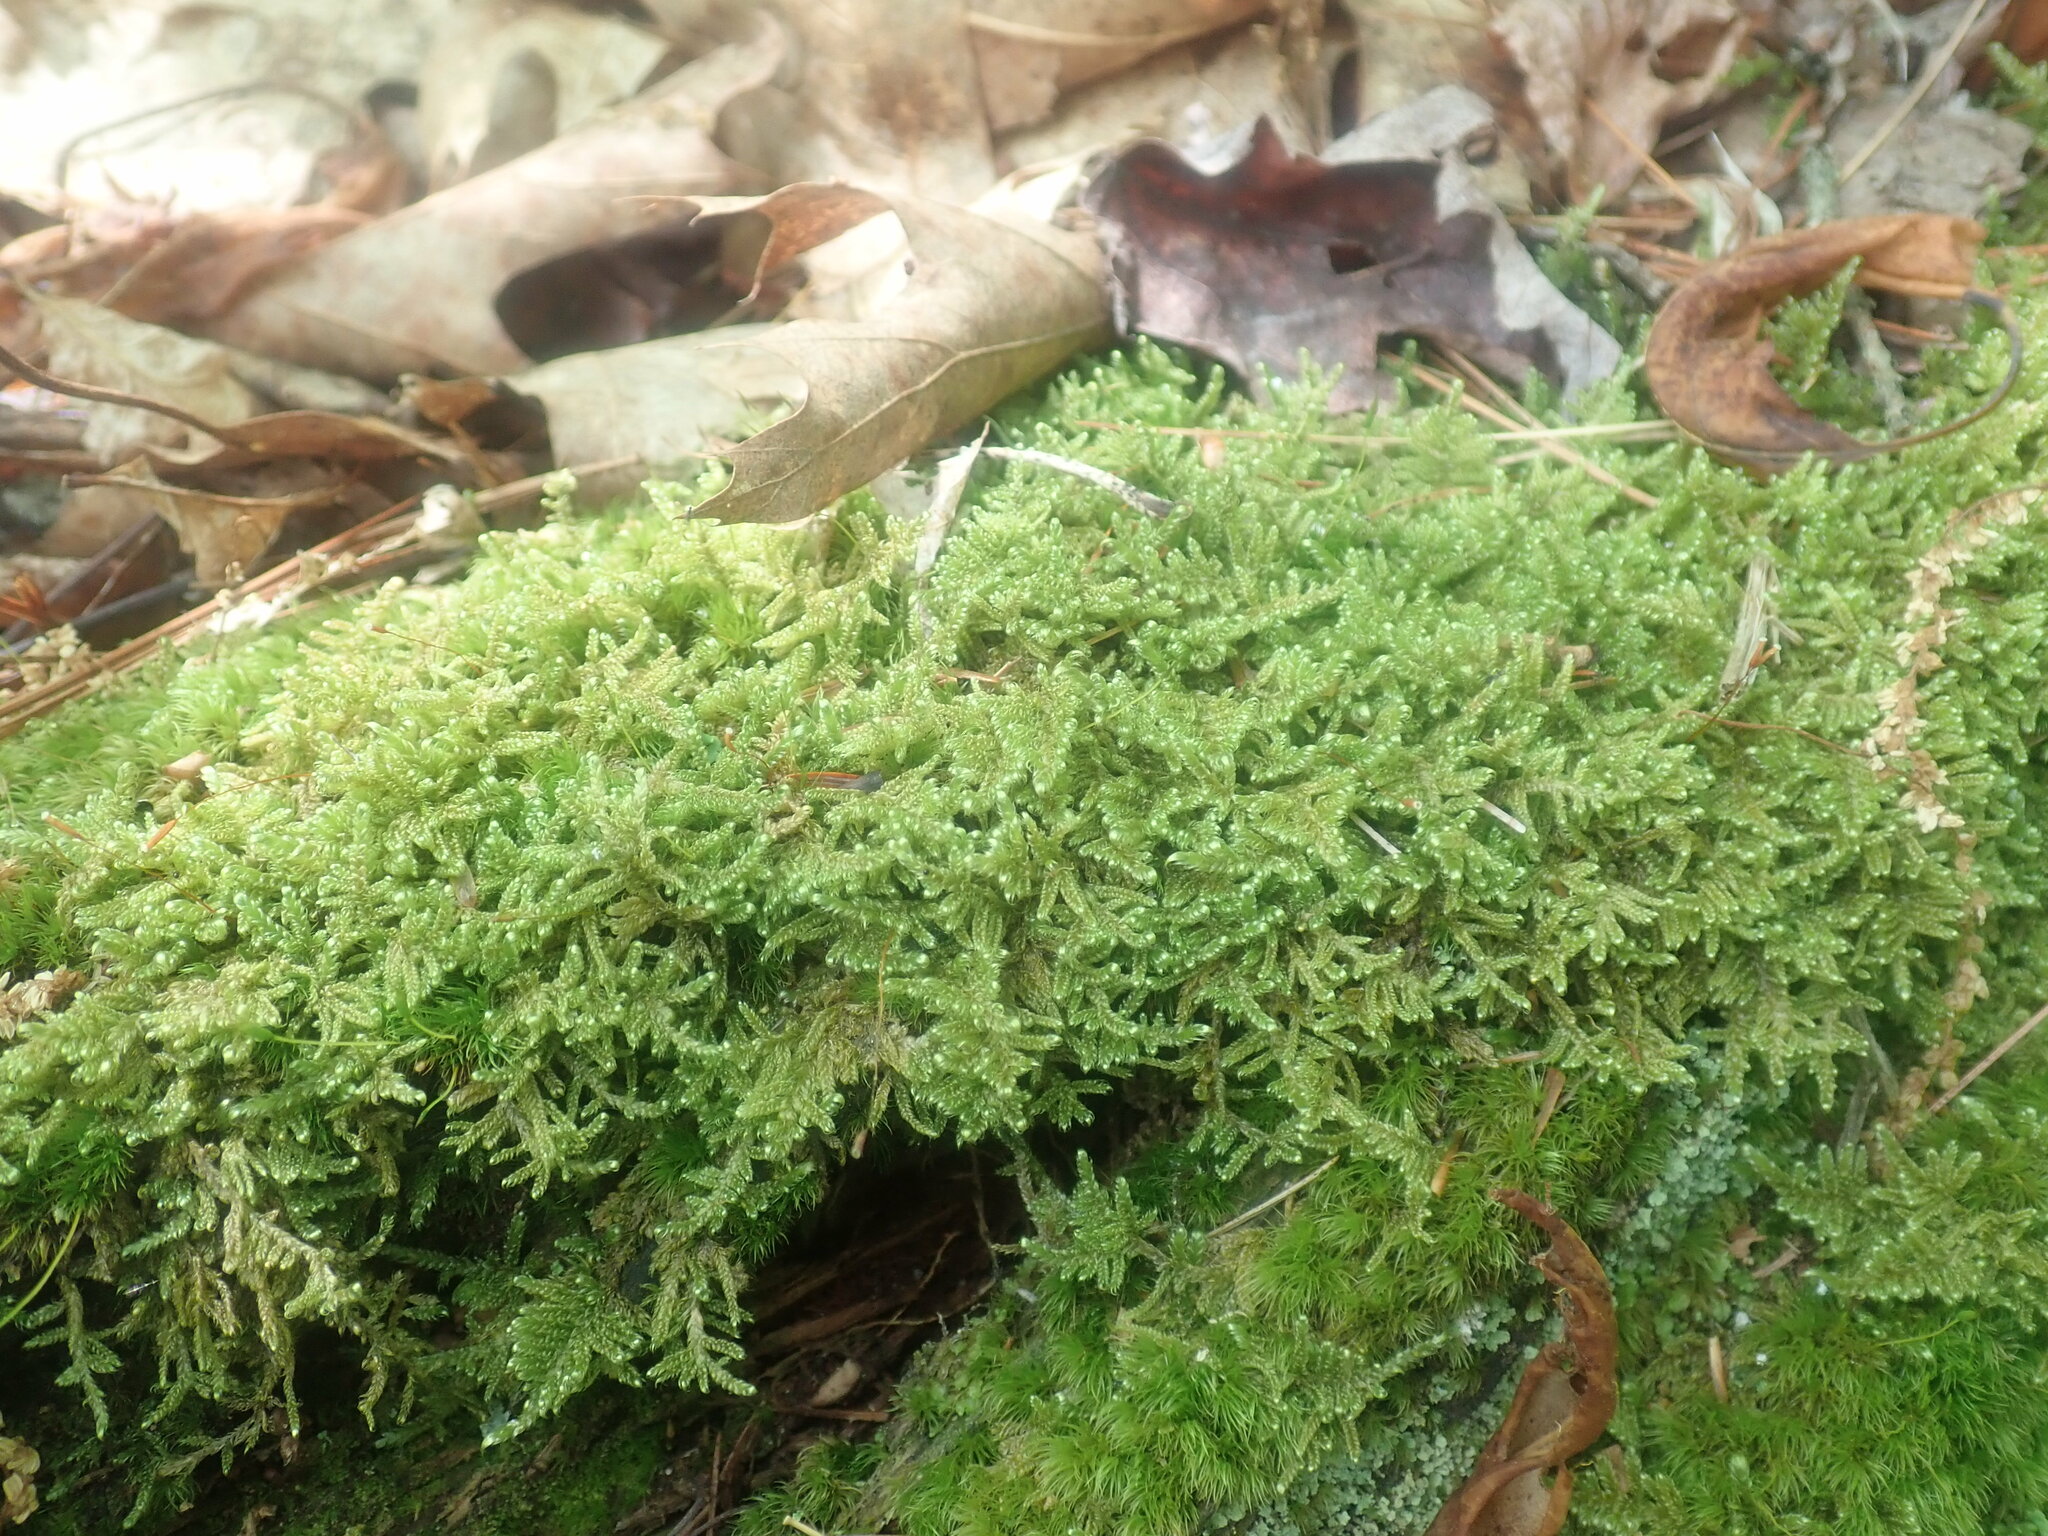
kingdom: Plantae
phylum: Bryophyta
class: Bryopsida
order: Hypnales
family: Callicladiaceae
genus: Callicladium
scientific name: Callicladium imponens
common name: Brocade moss
